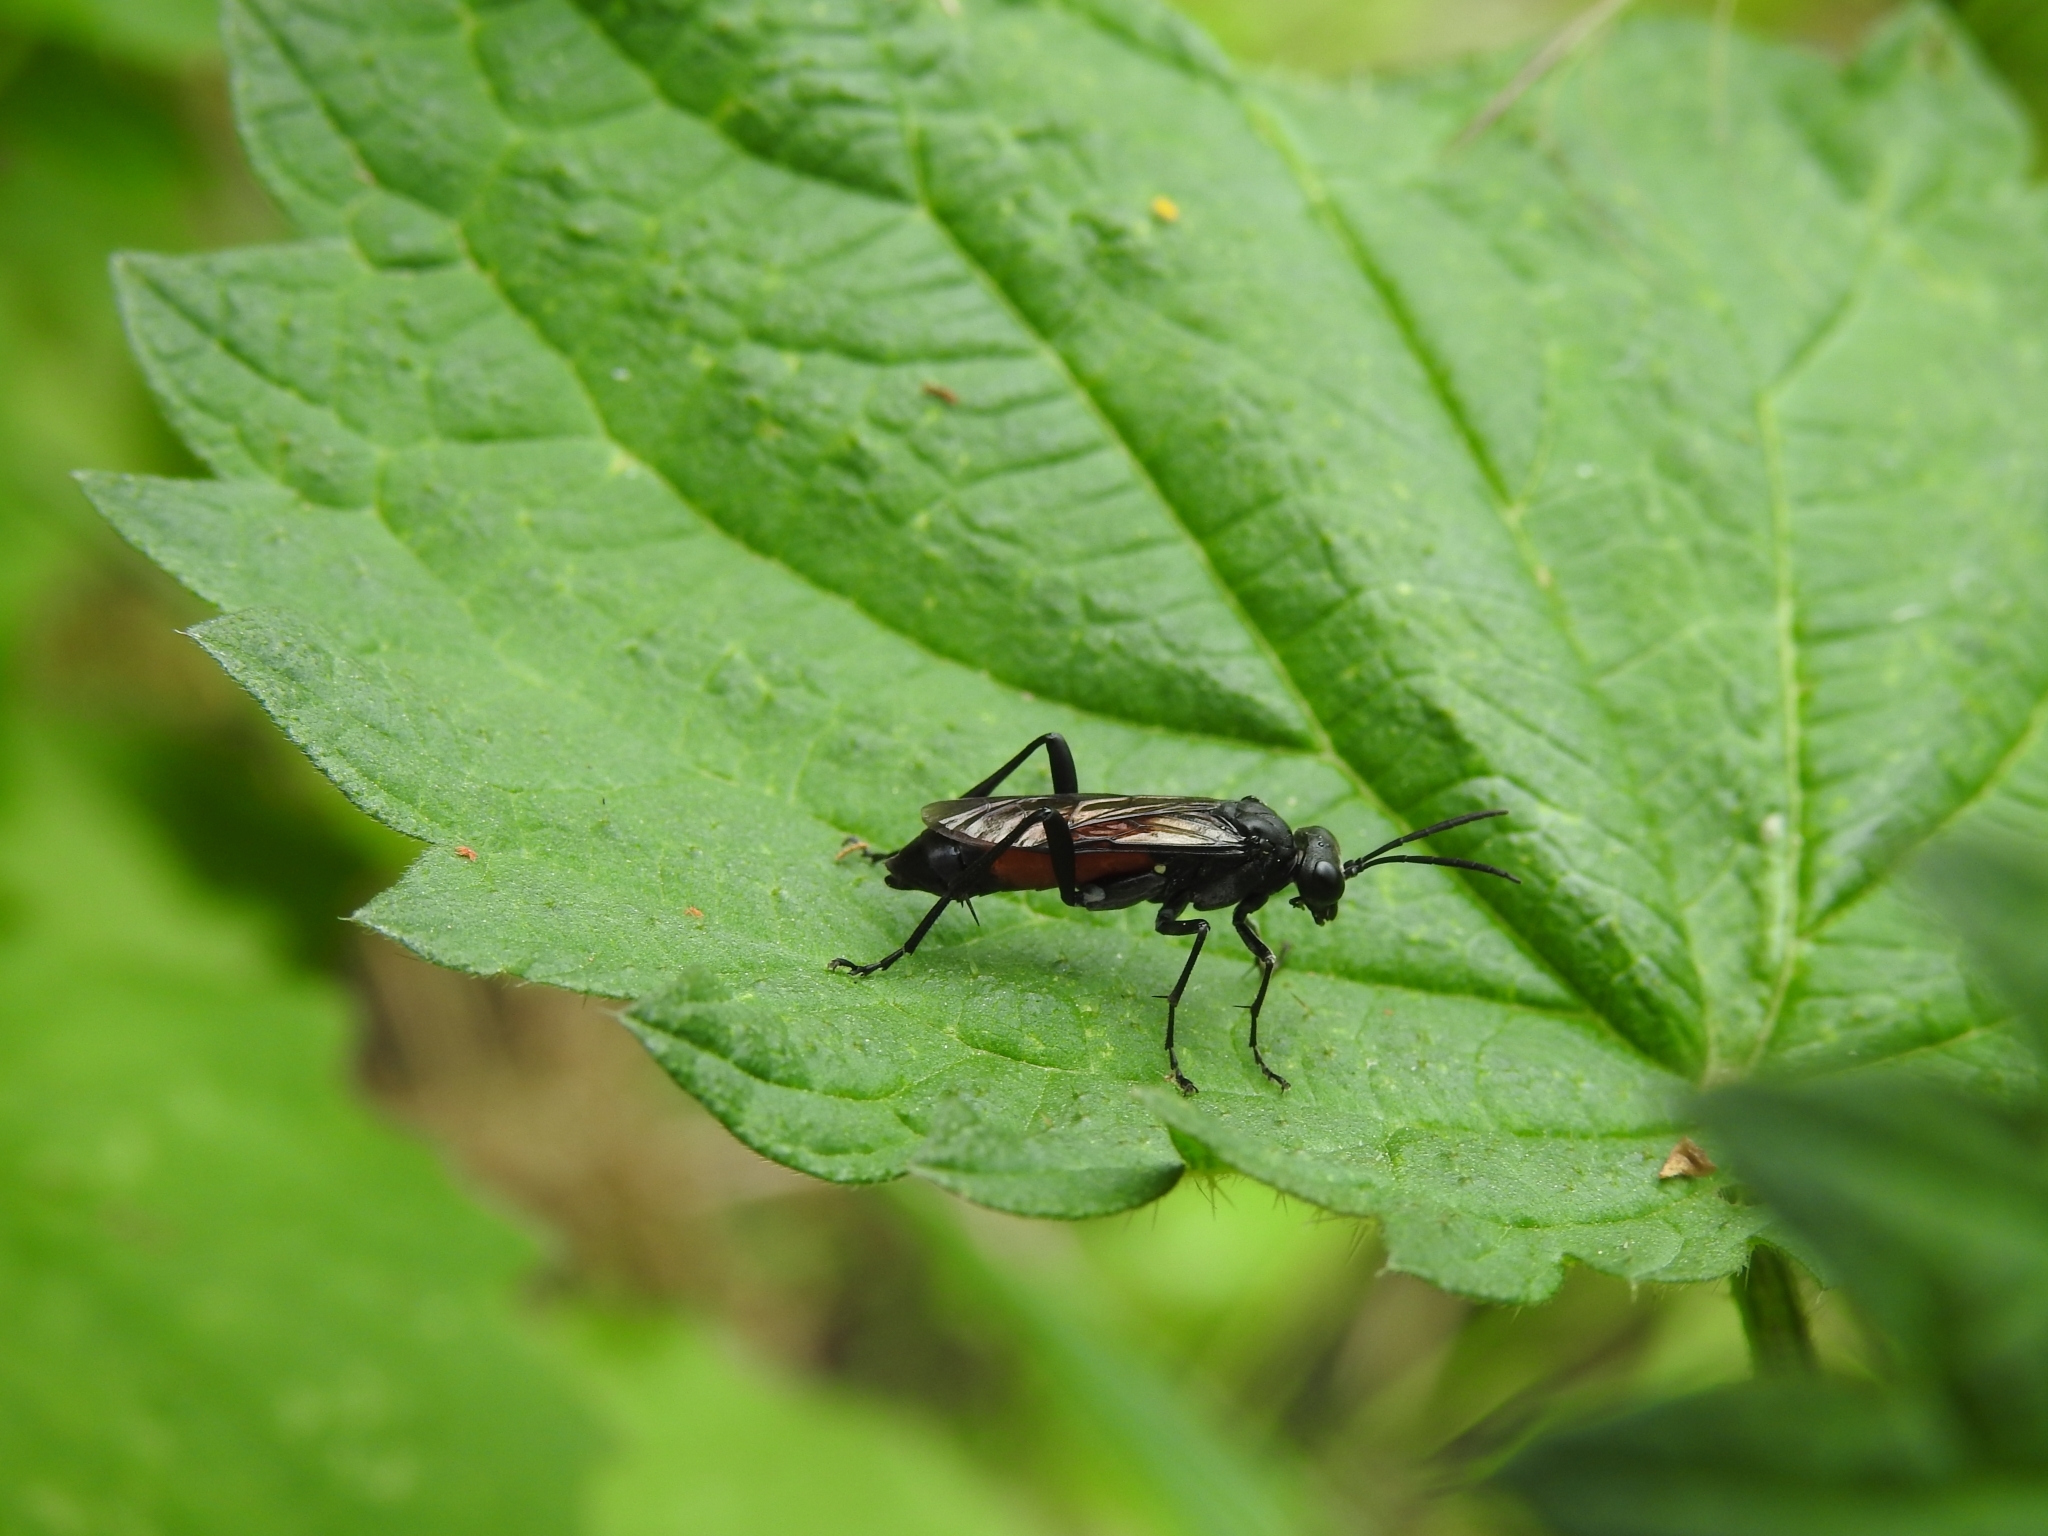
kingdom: Animalia
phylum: Arthropoda
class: Insecta
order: Hymenoptera
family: Tenthredinidae
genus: Macrophya
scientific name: Macrophya annulata
